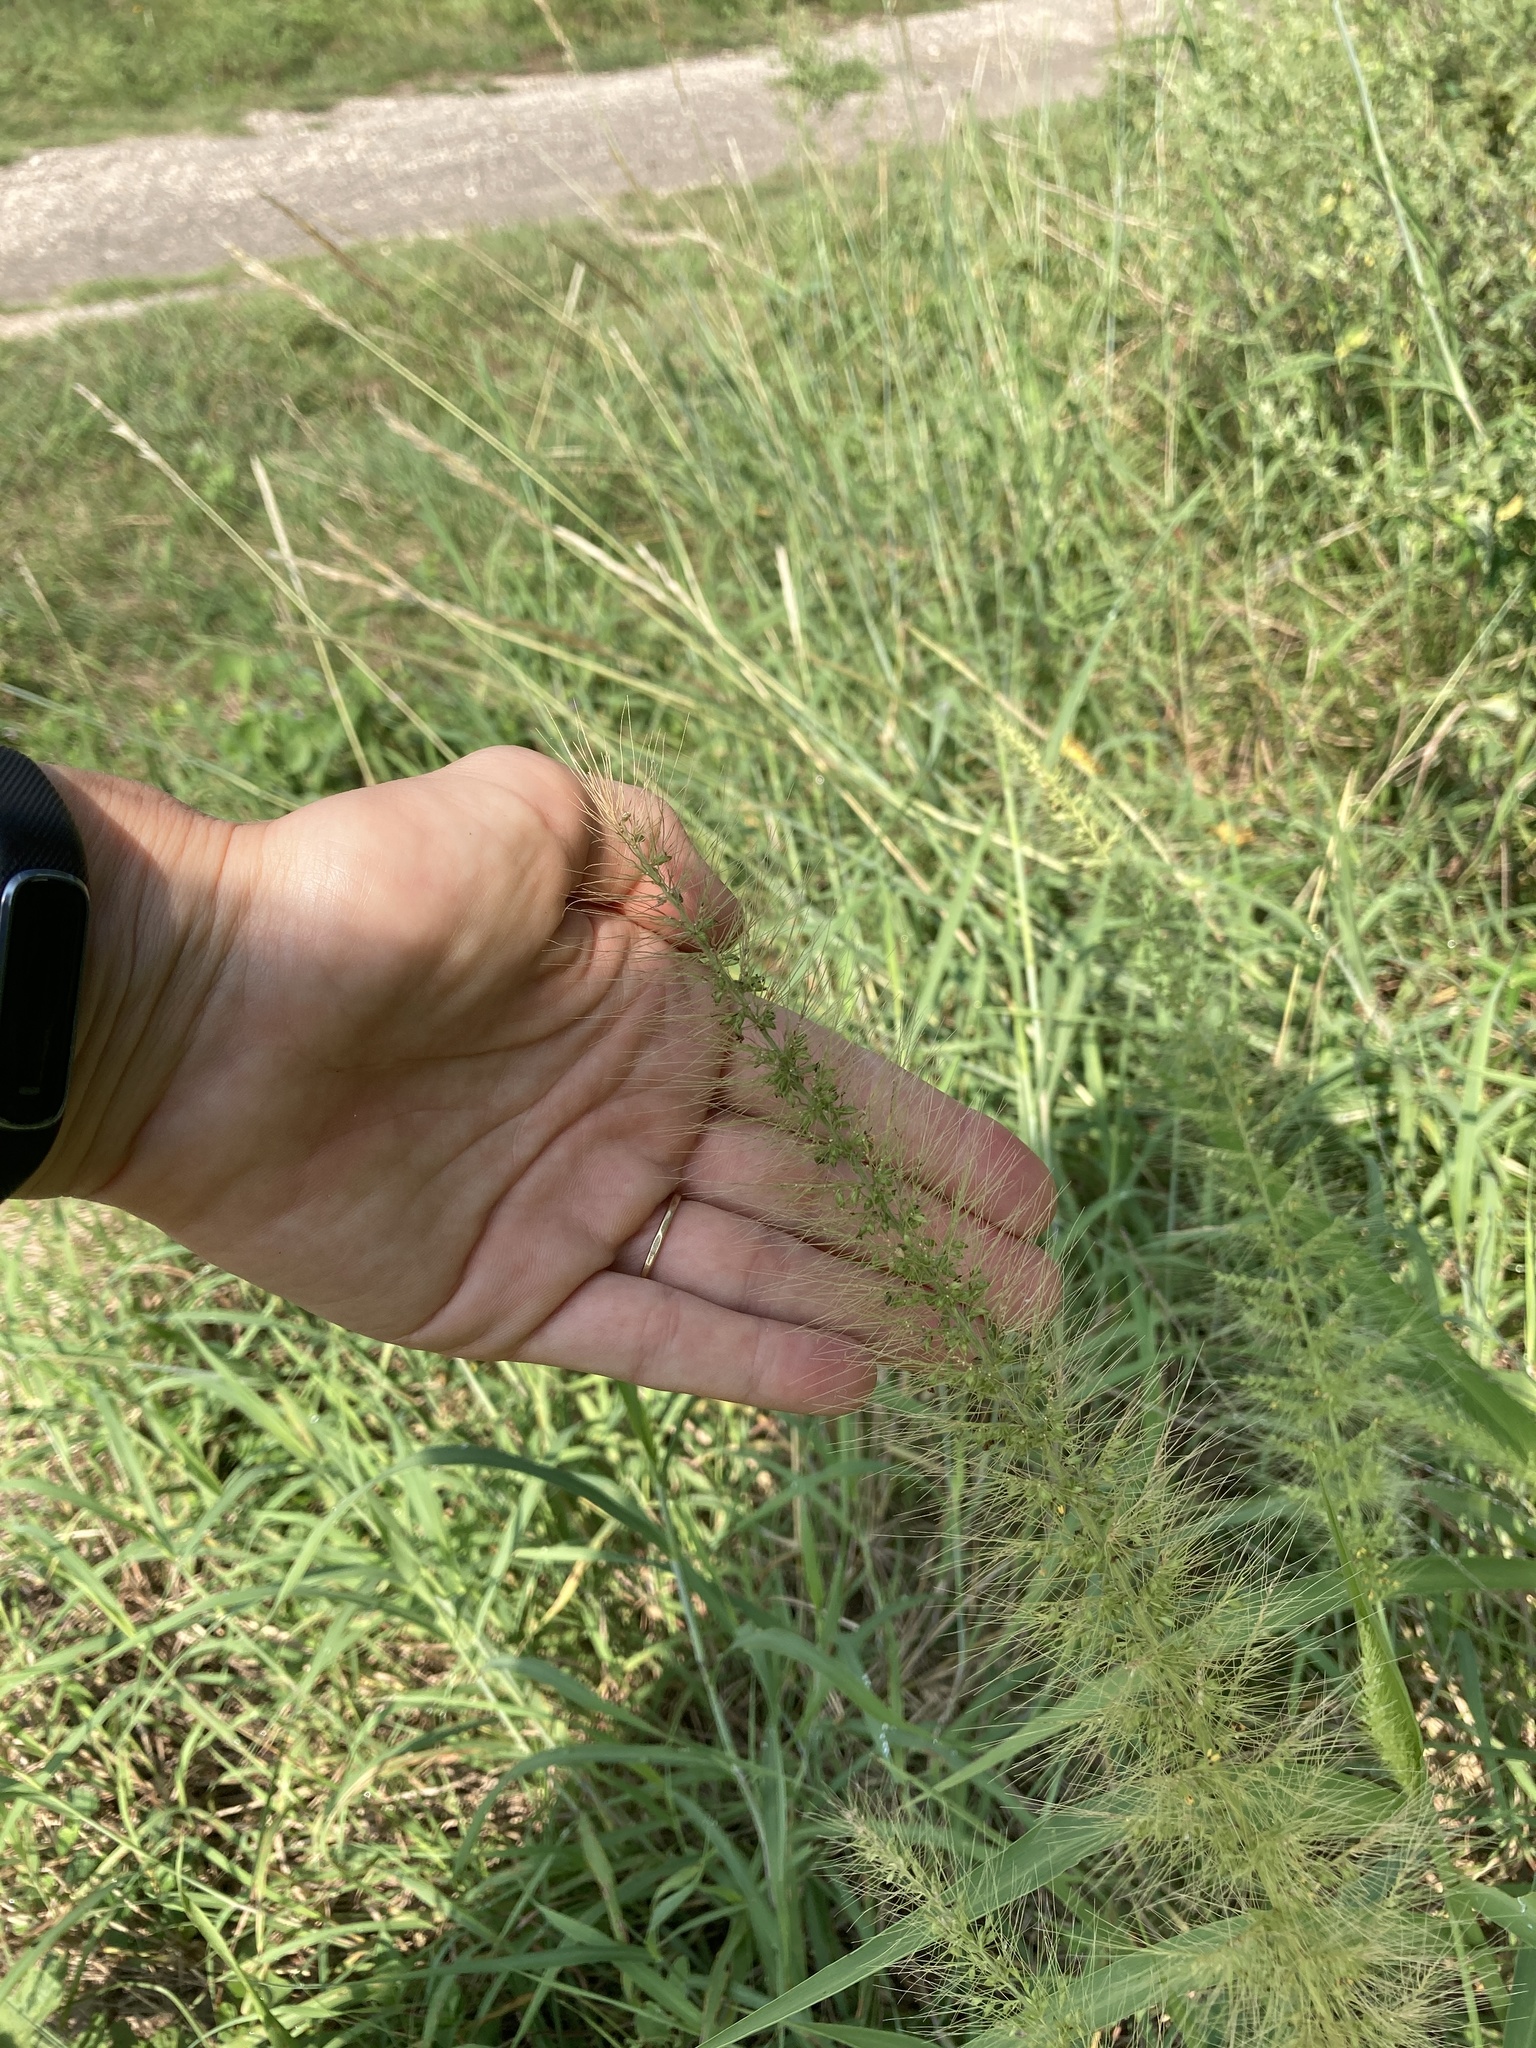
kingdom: Plantae
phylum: Tracheophyta
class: Liliopsida
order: Poales
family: Poaceae
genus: Setaria
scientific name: Setaria scheelei
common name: Southwestern bristle grass
